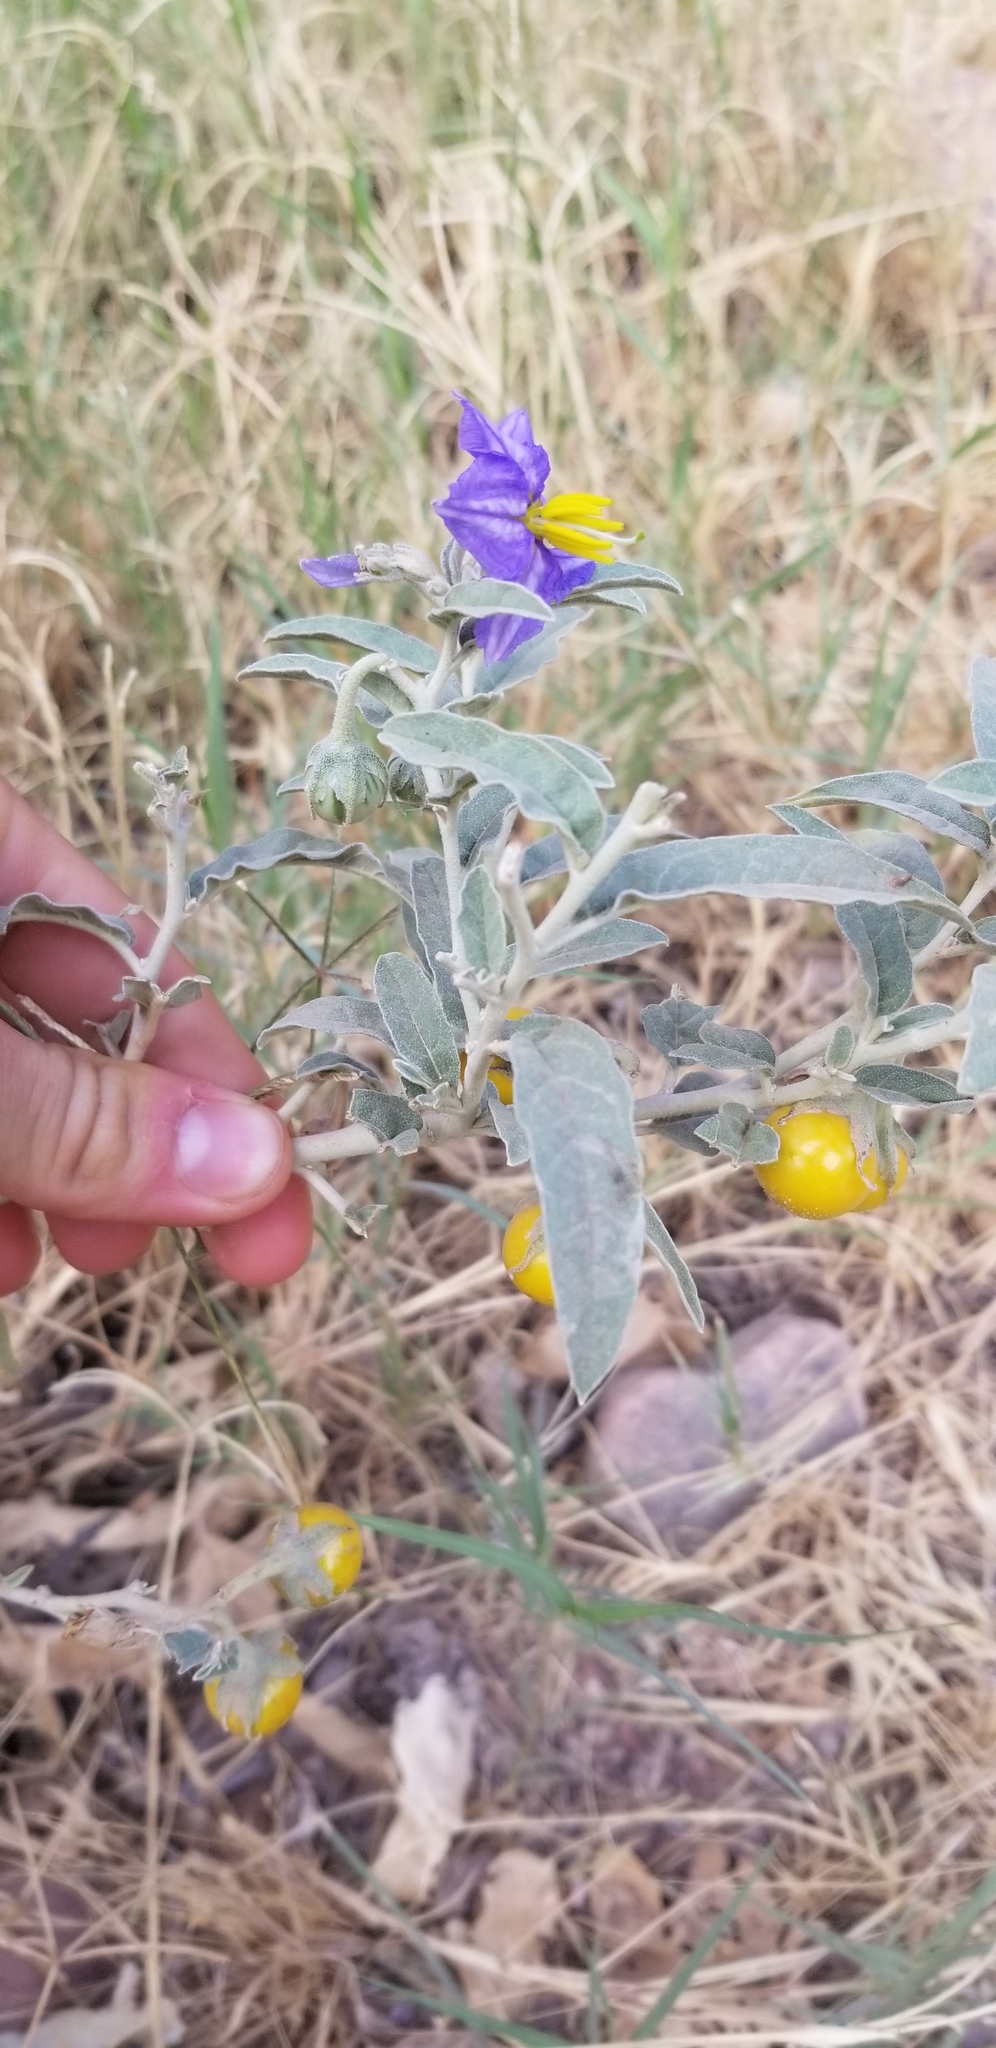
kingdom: Plantae
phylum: Tracheophyta
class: Magnoliopsida
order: Solanales
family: Solanaceae
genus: Solanum
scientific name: Solanum elaeagnifolium
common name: Silverleaf nightshade
